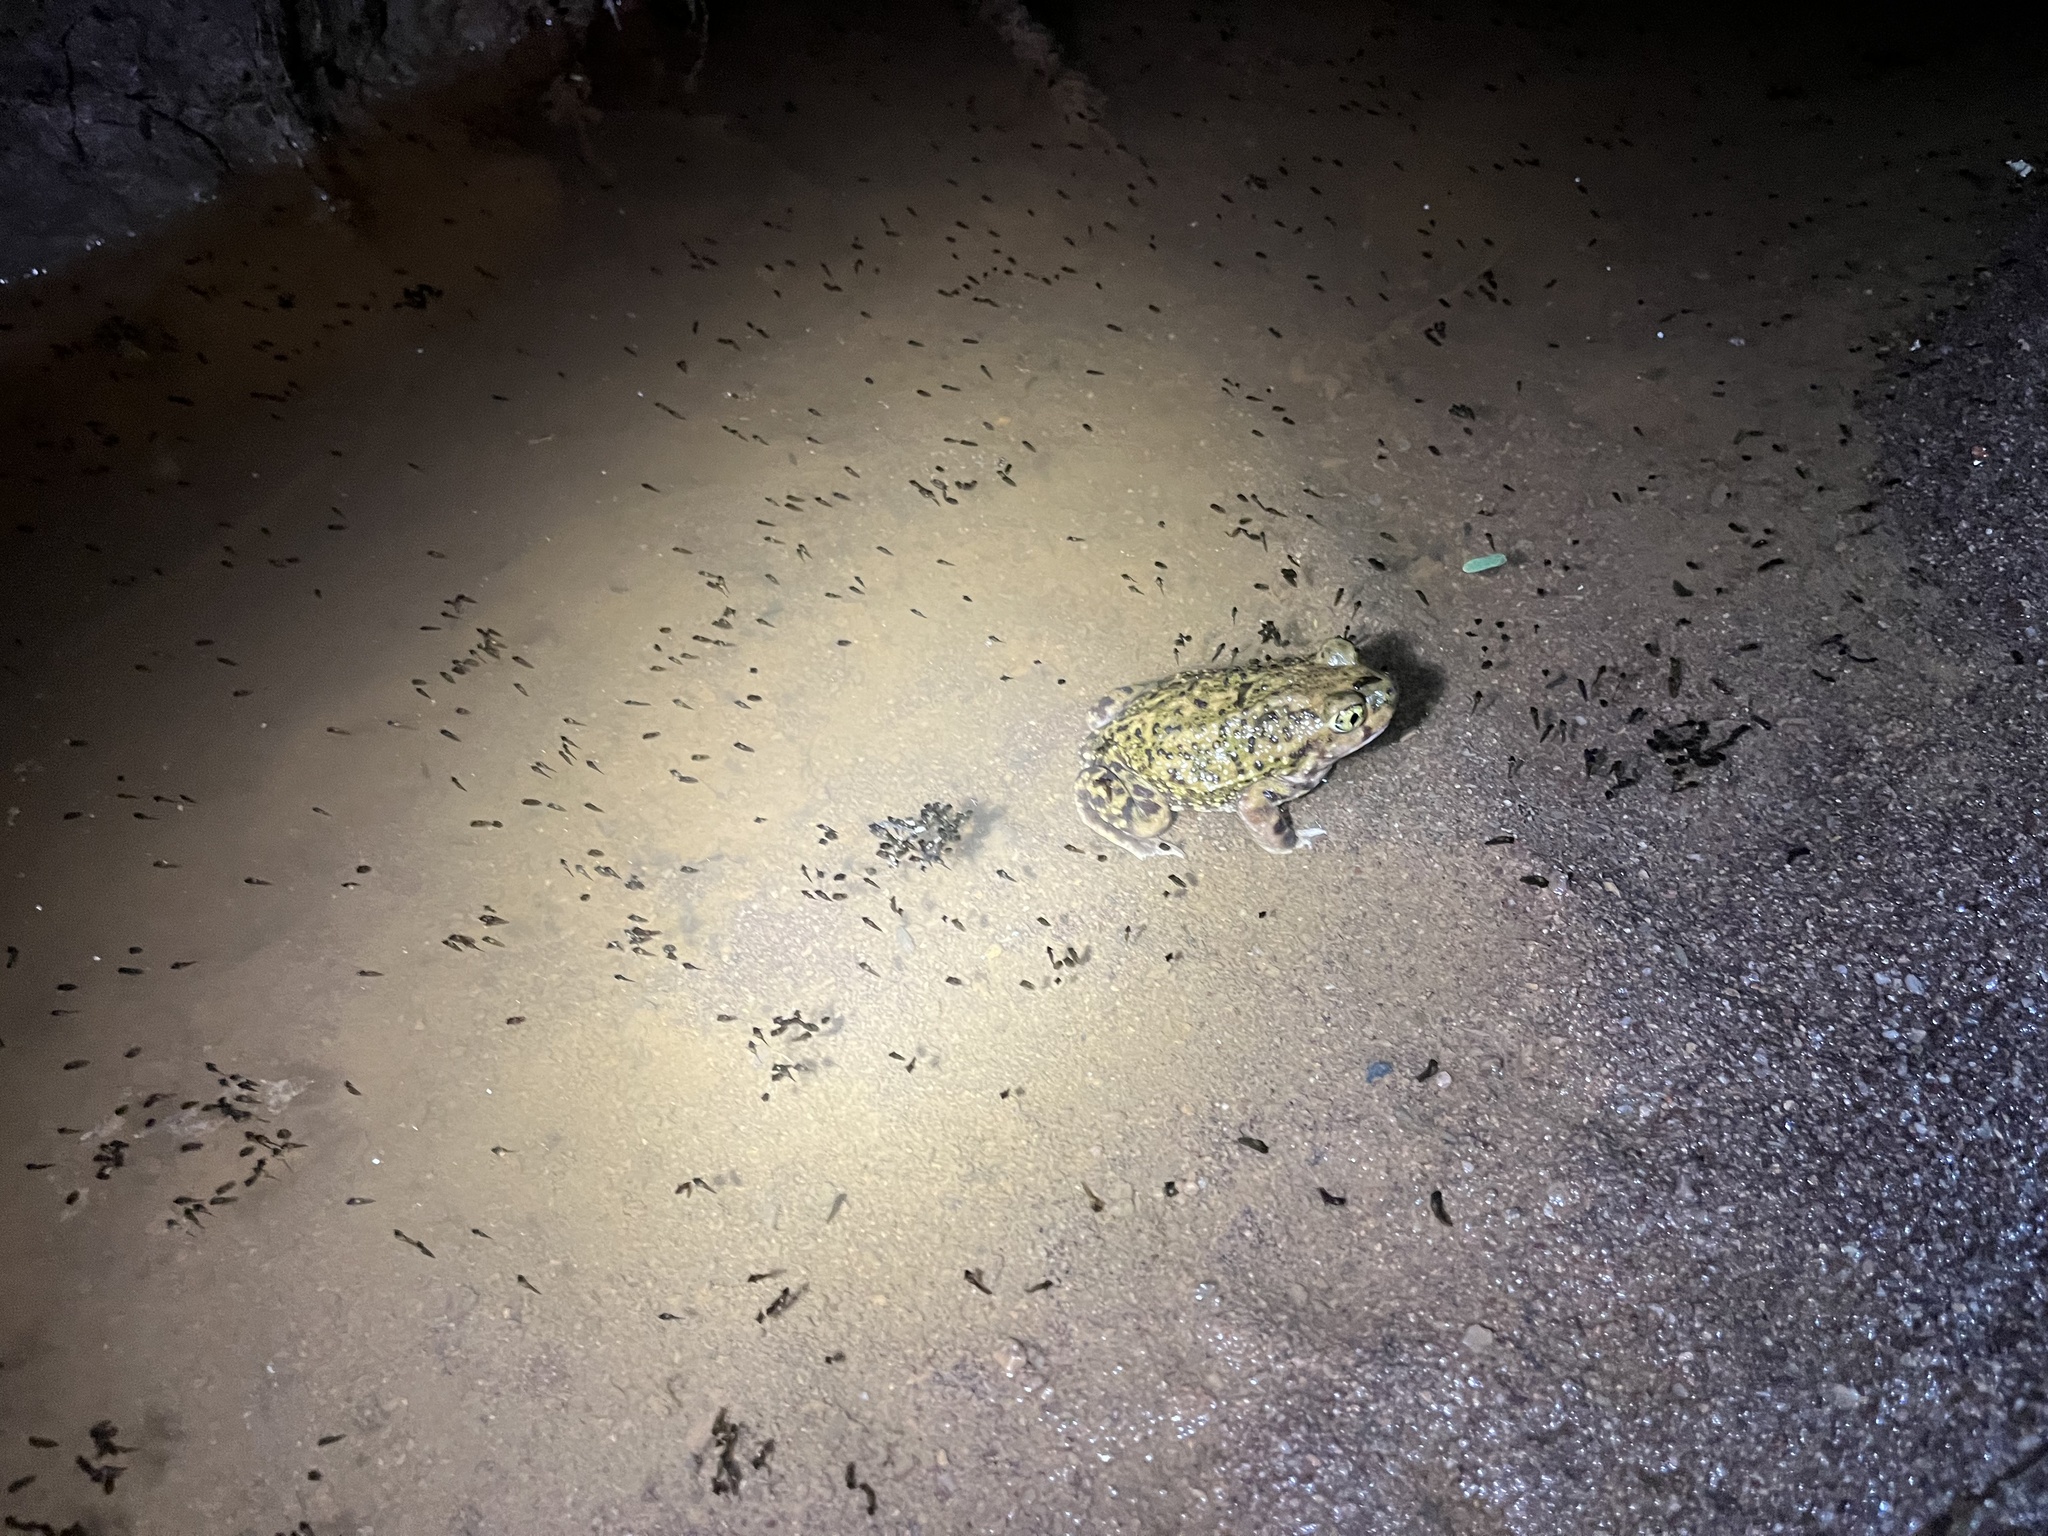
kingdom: Animalia
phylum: Chordata
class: Amphibia
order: Anura
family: Scaphiopodidae
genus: Scaphiopus
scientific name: Scaphiopus couchii
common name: Couch's spadefoot toad
